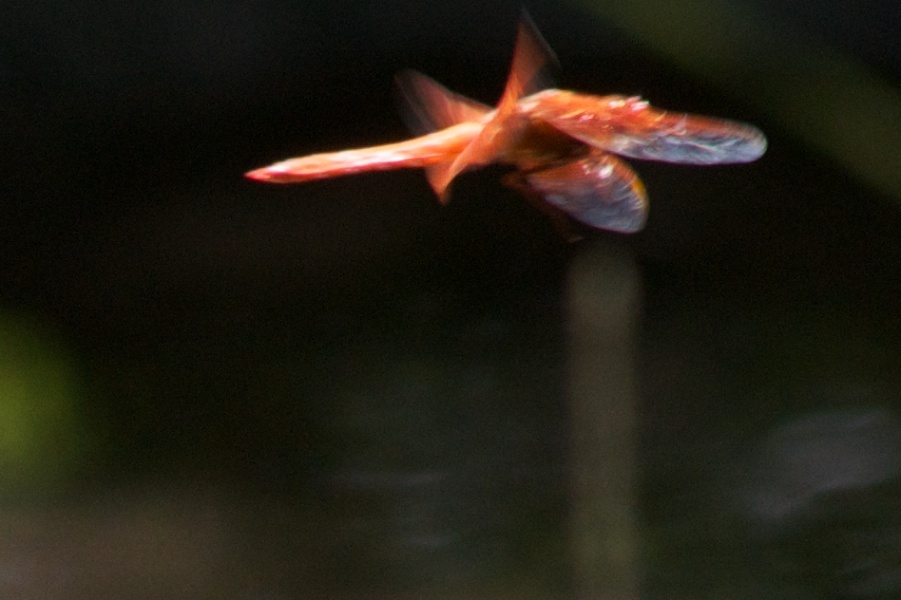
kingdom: Animalia
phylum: Arthropoda
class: Insecta
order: Odonata
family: Libellulidae
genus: Libellula
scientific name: Libellula saturata
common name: Flame skimmer
